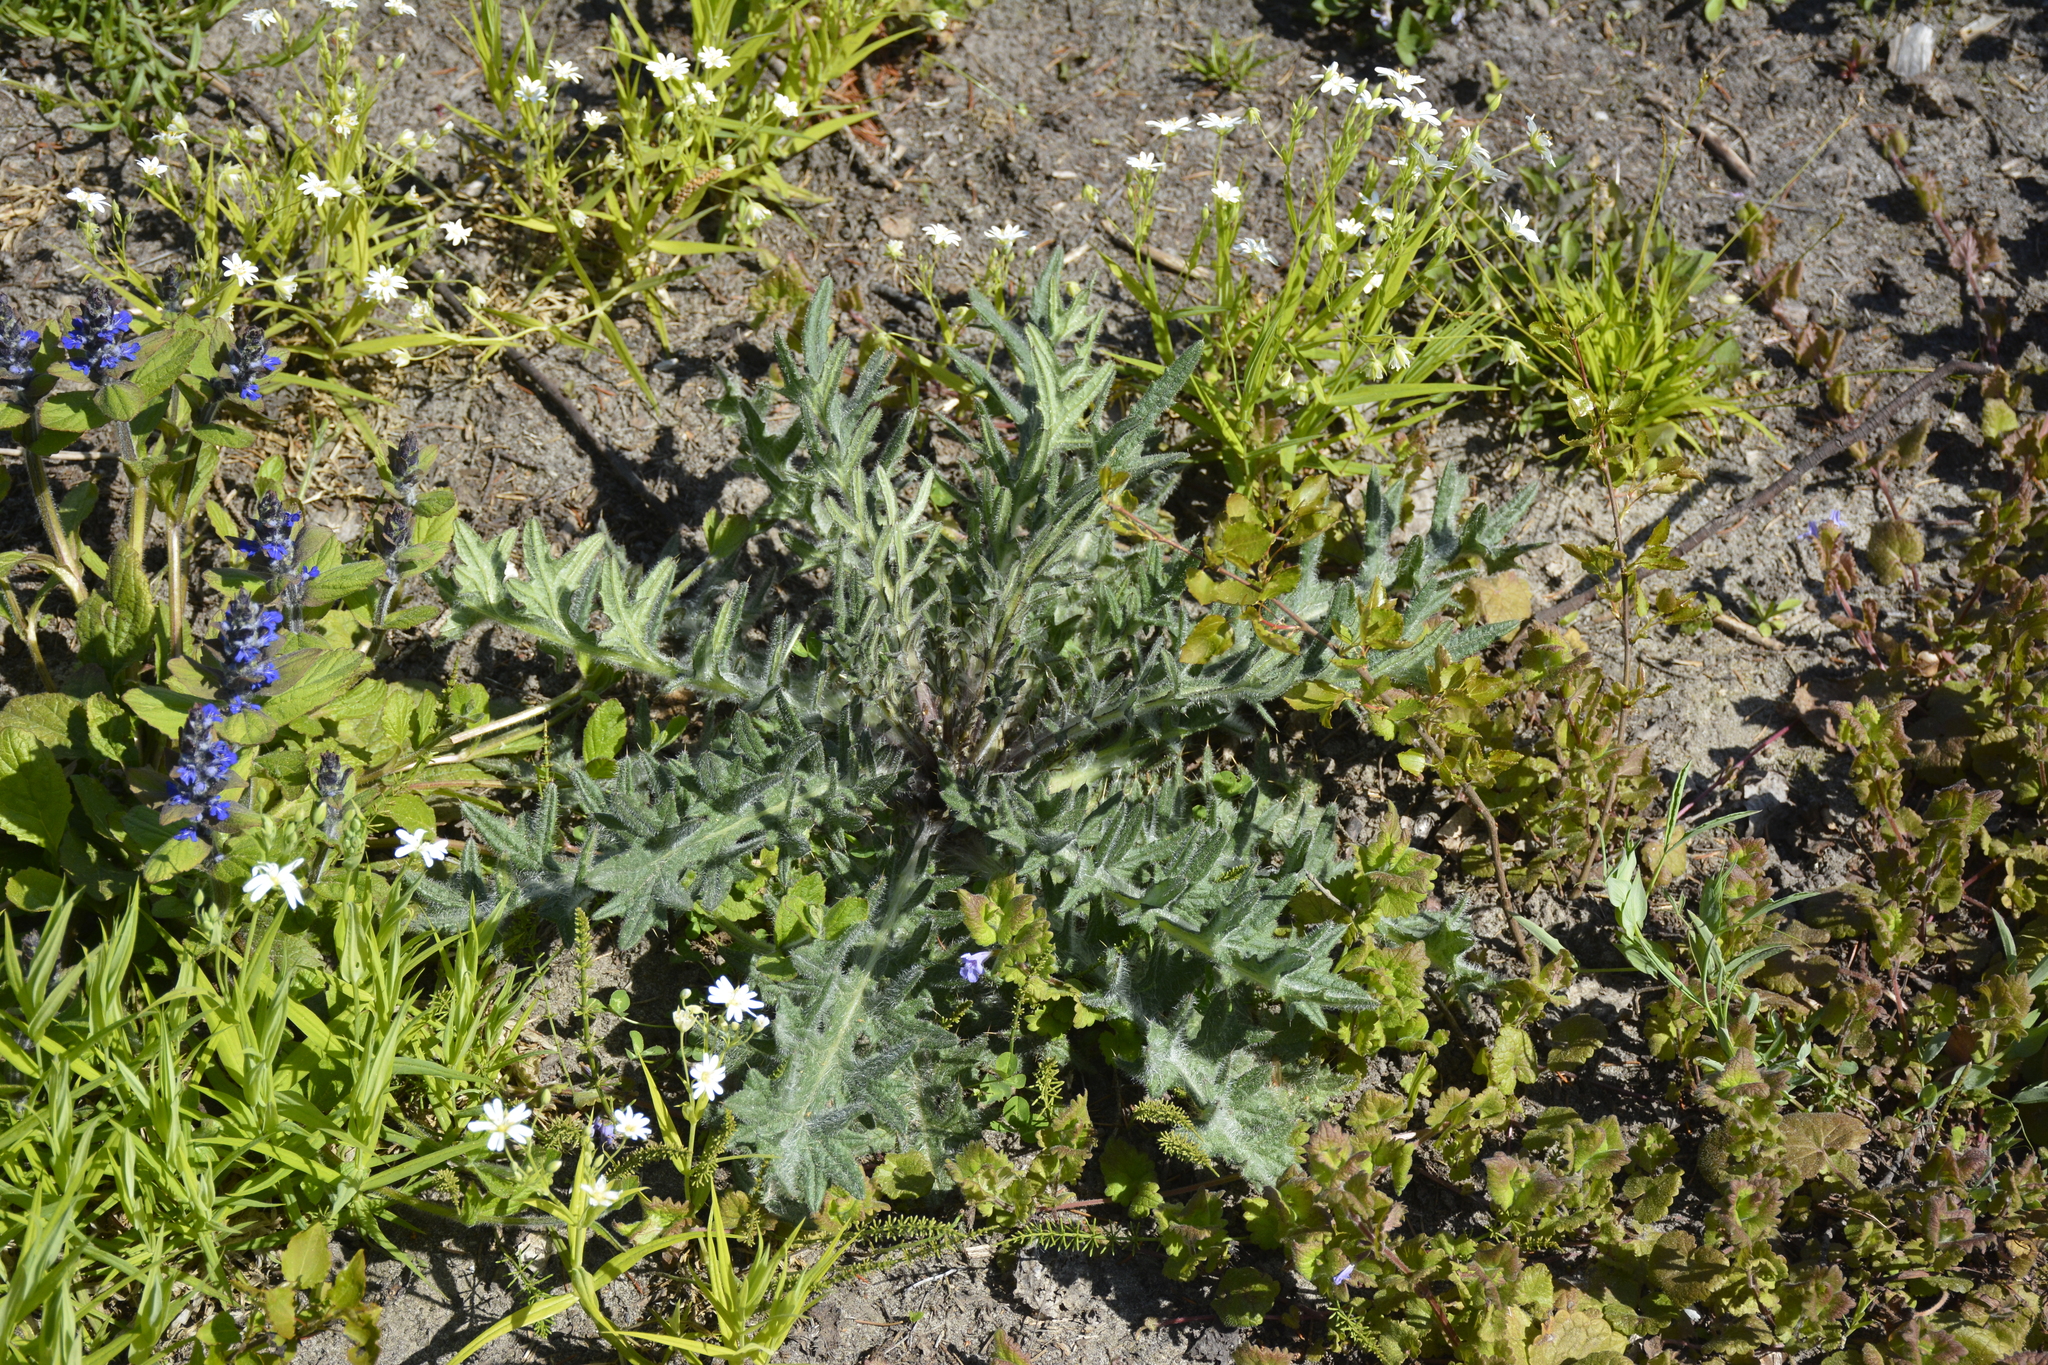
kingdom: Plantae
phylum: Tracheophyta
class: Magnoliopsida
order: Asterales
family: Asteraceae
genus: Cirsium
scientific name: Cirsium vulgare
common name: Bull thistle
